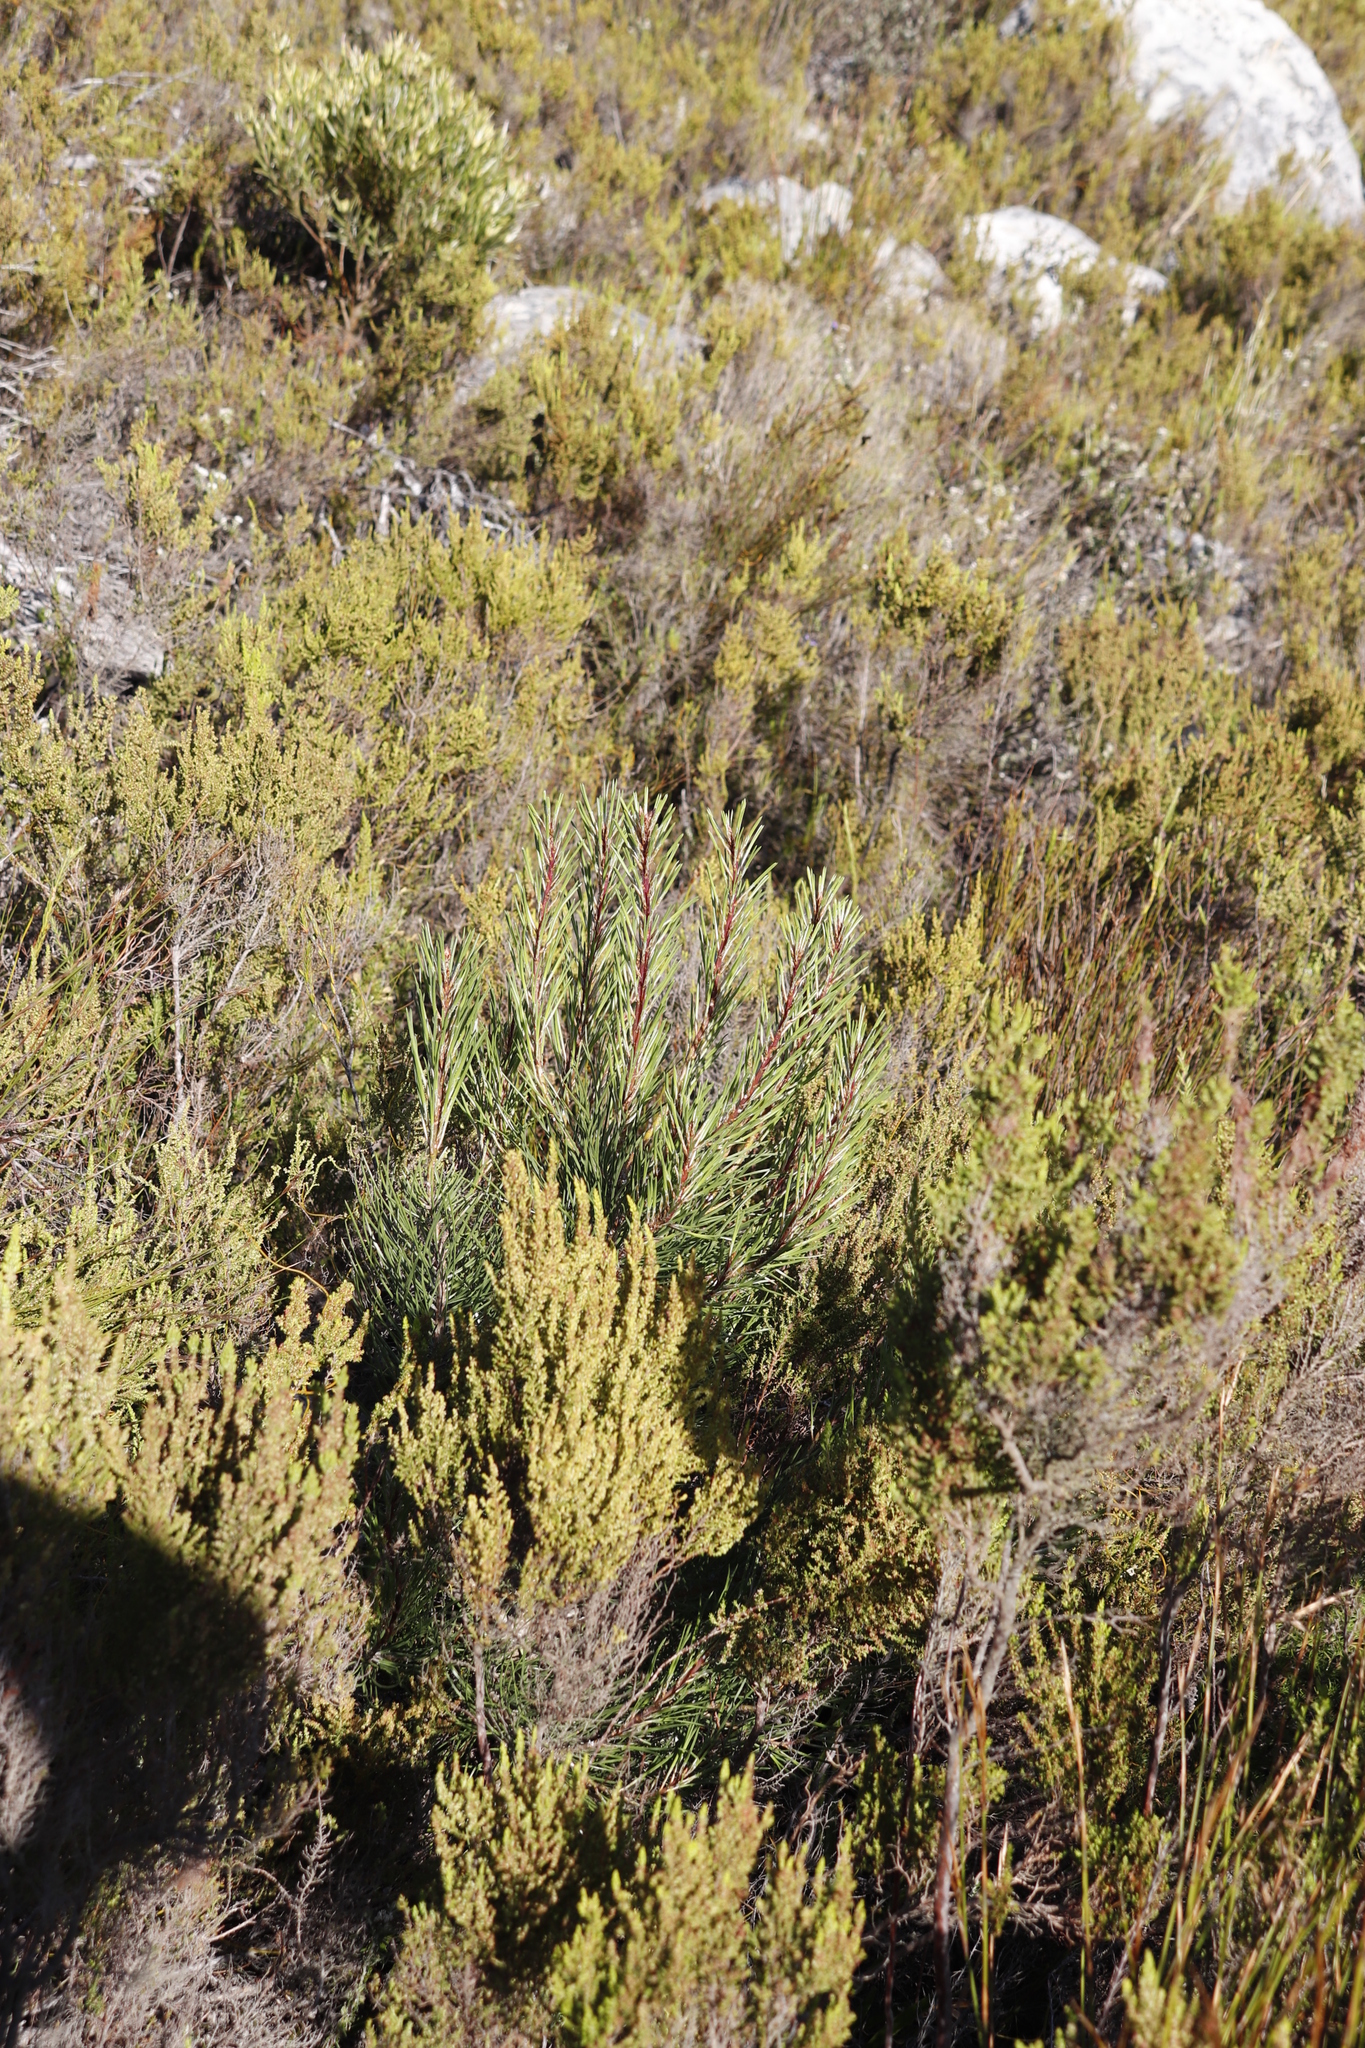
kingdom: Plantae
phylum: Tracheophyta
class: Pinopsida
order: Pinales
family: Pinaceae
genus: Pinus
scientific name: Pinus pinaster
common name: Maritime pine
